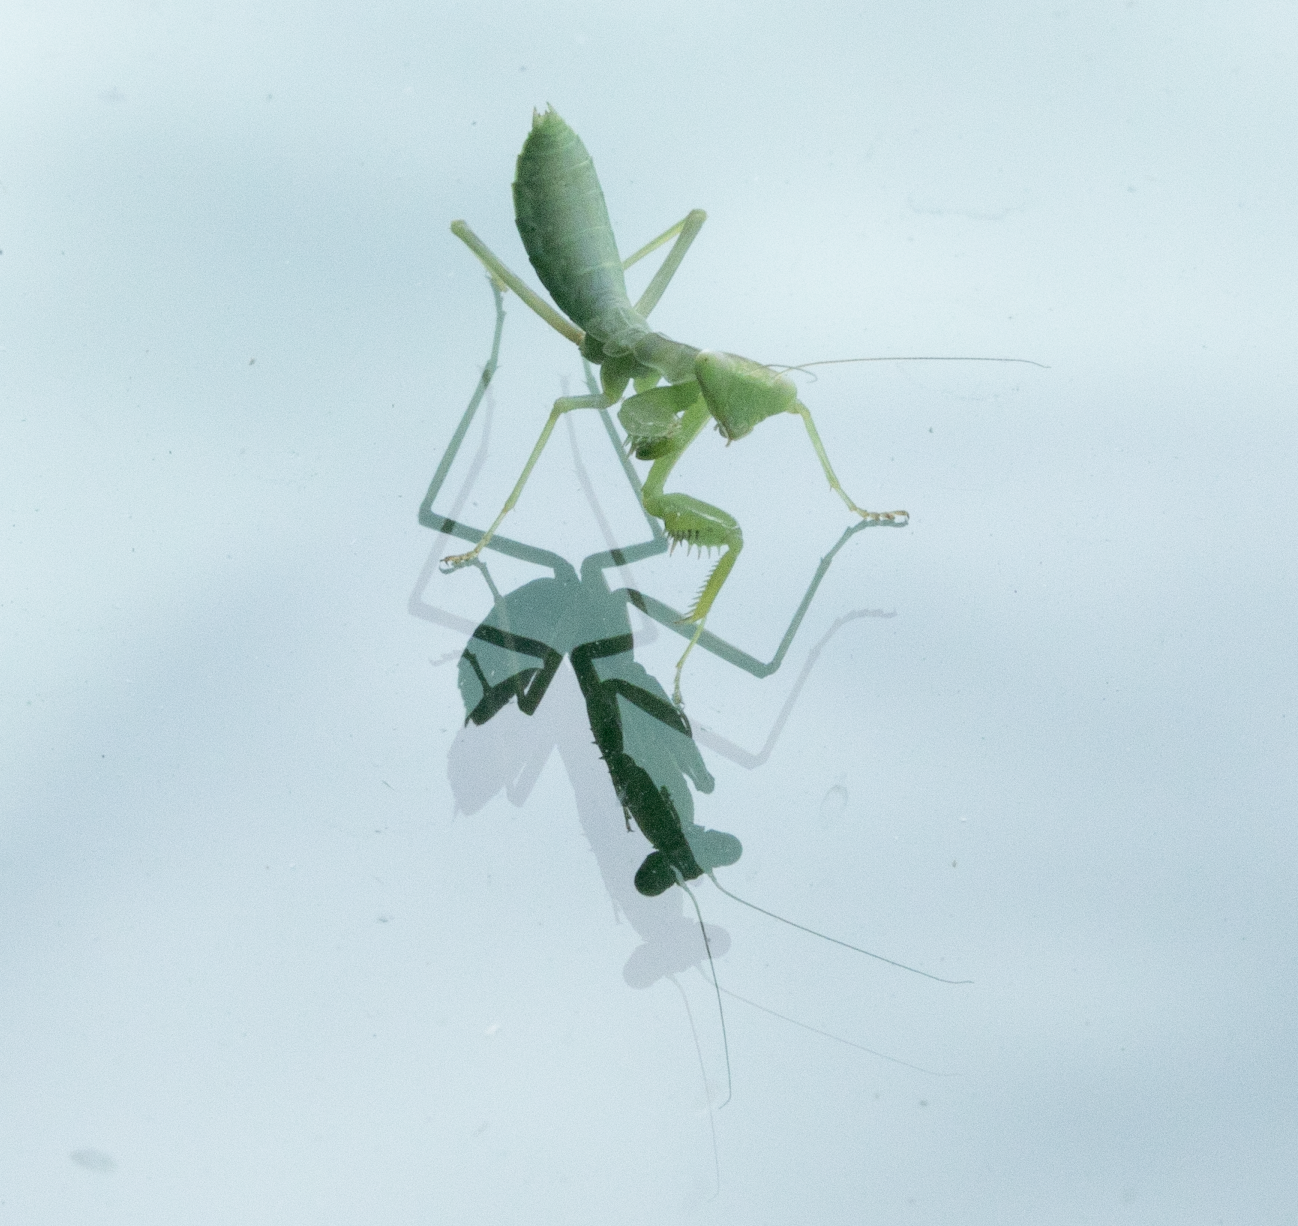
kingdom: Animalia
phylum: Arthropoda
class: Insecta
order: Mantodea
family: Mantidae
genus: Hierodula
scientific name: Hierodula transcaucasica
